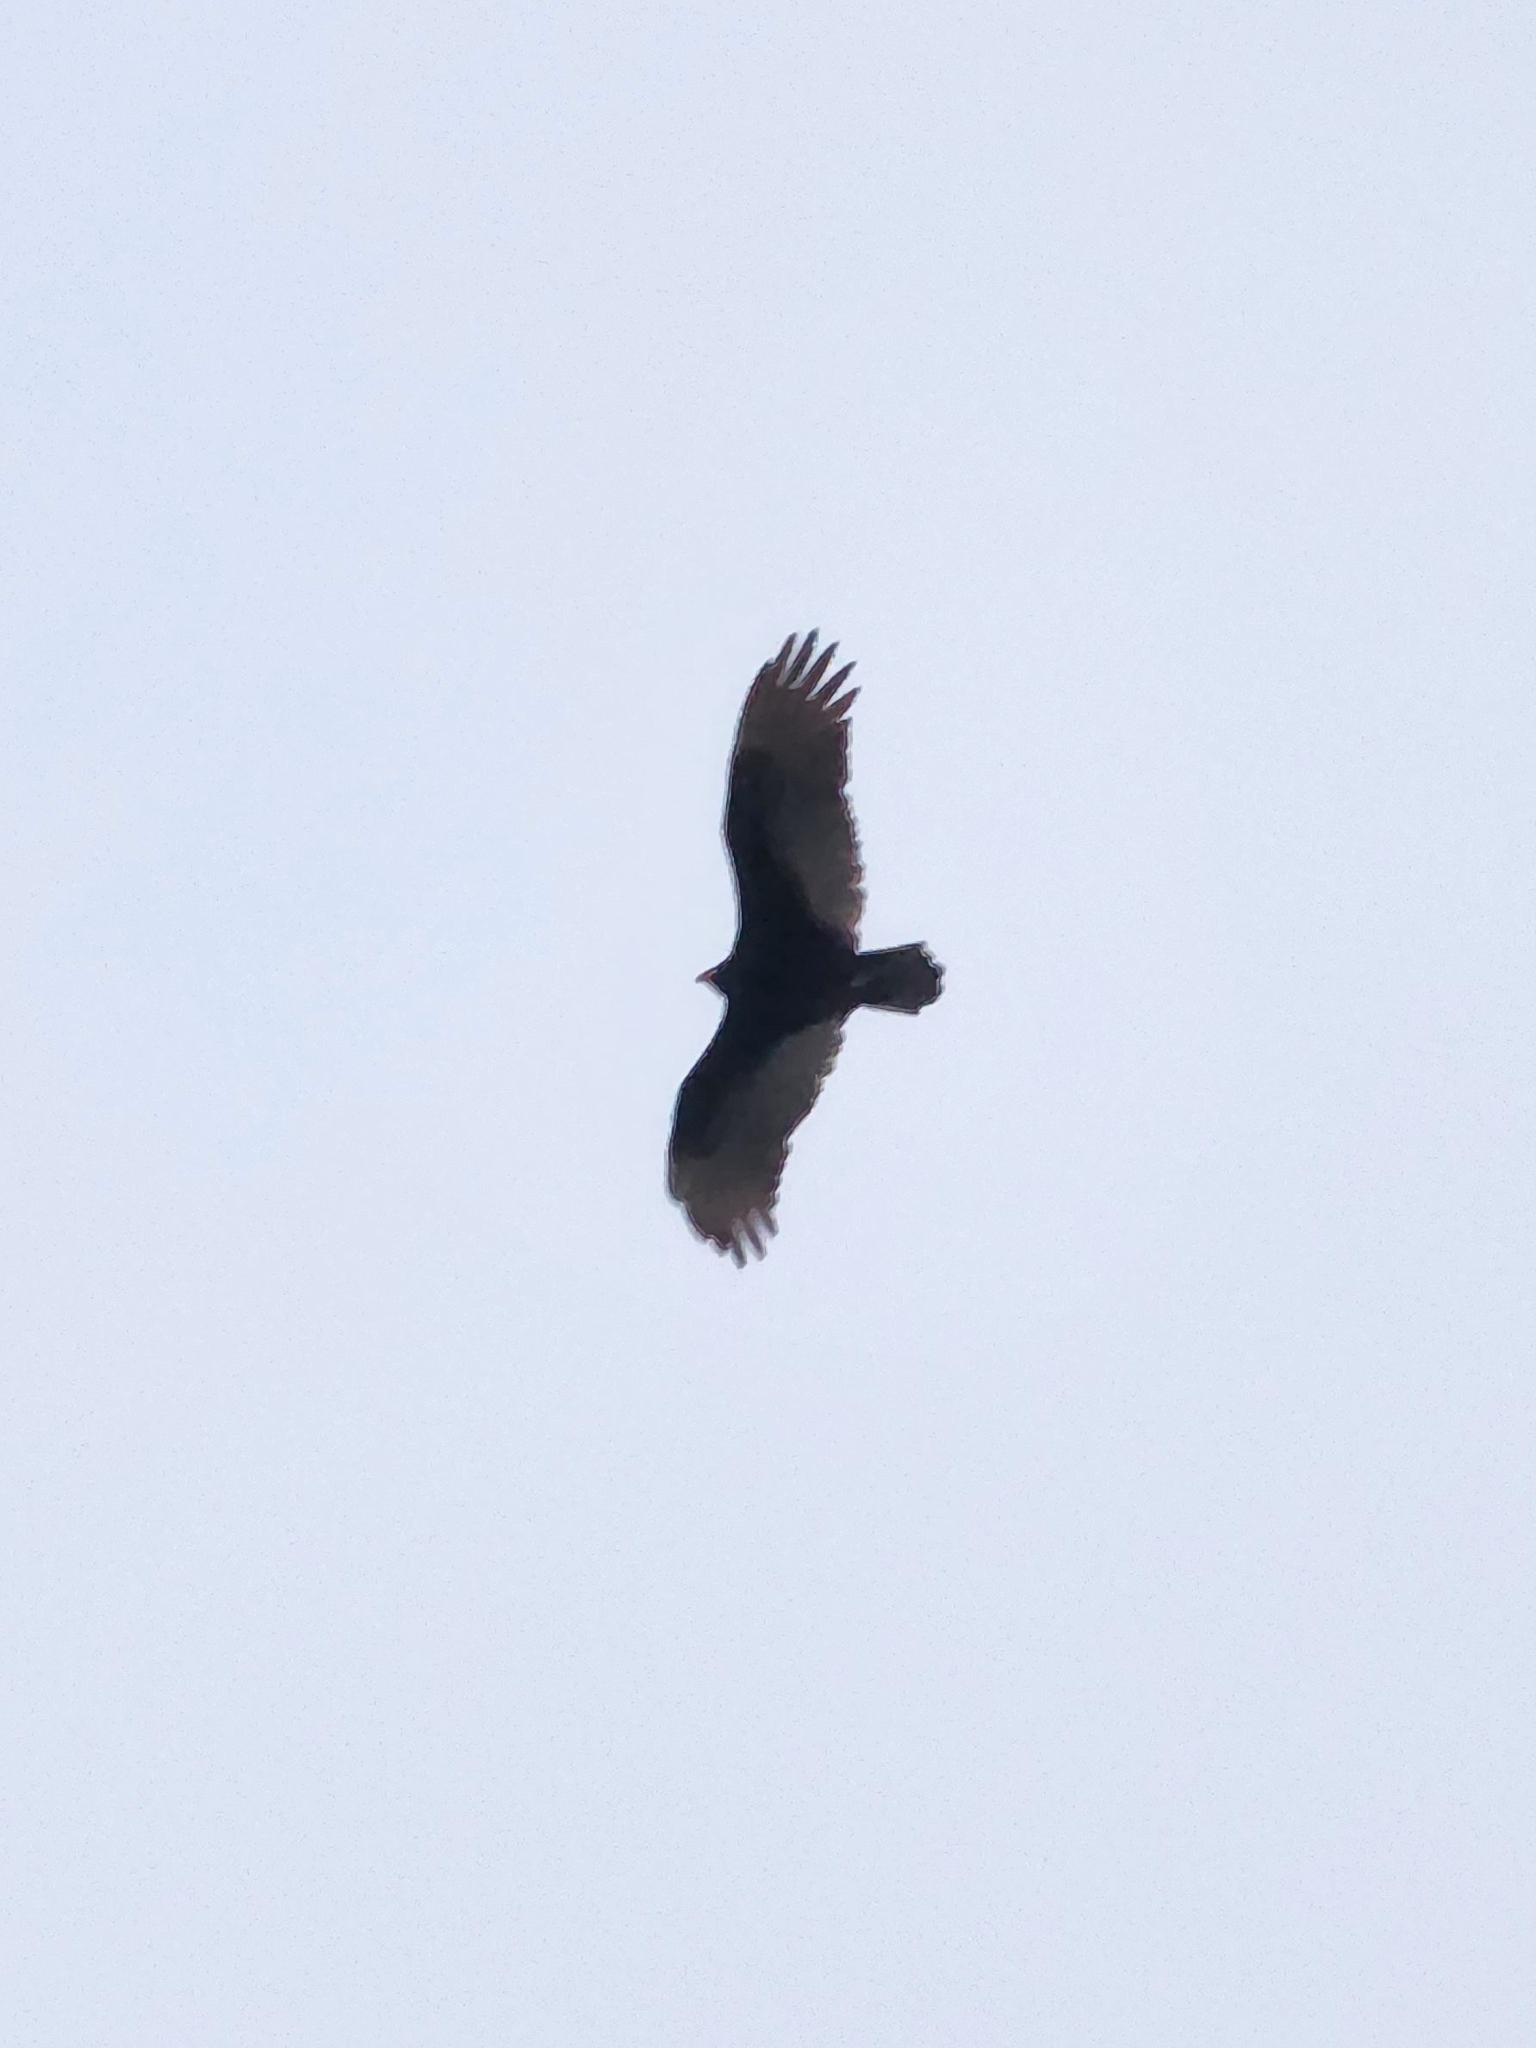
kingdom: Animalia
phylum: Chordata
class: Aves
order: Accipitriformes
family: Cathartidae
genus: Cathartes
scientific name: Cathartes aura
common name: Turkey vulture
